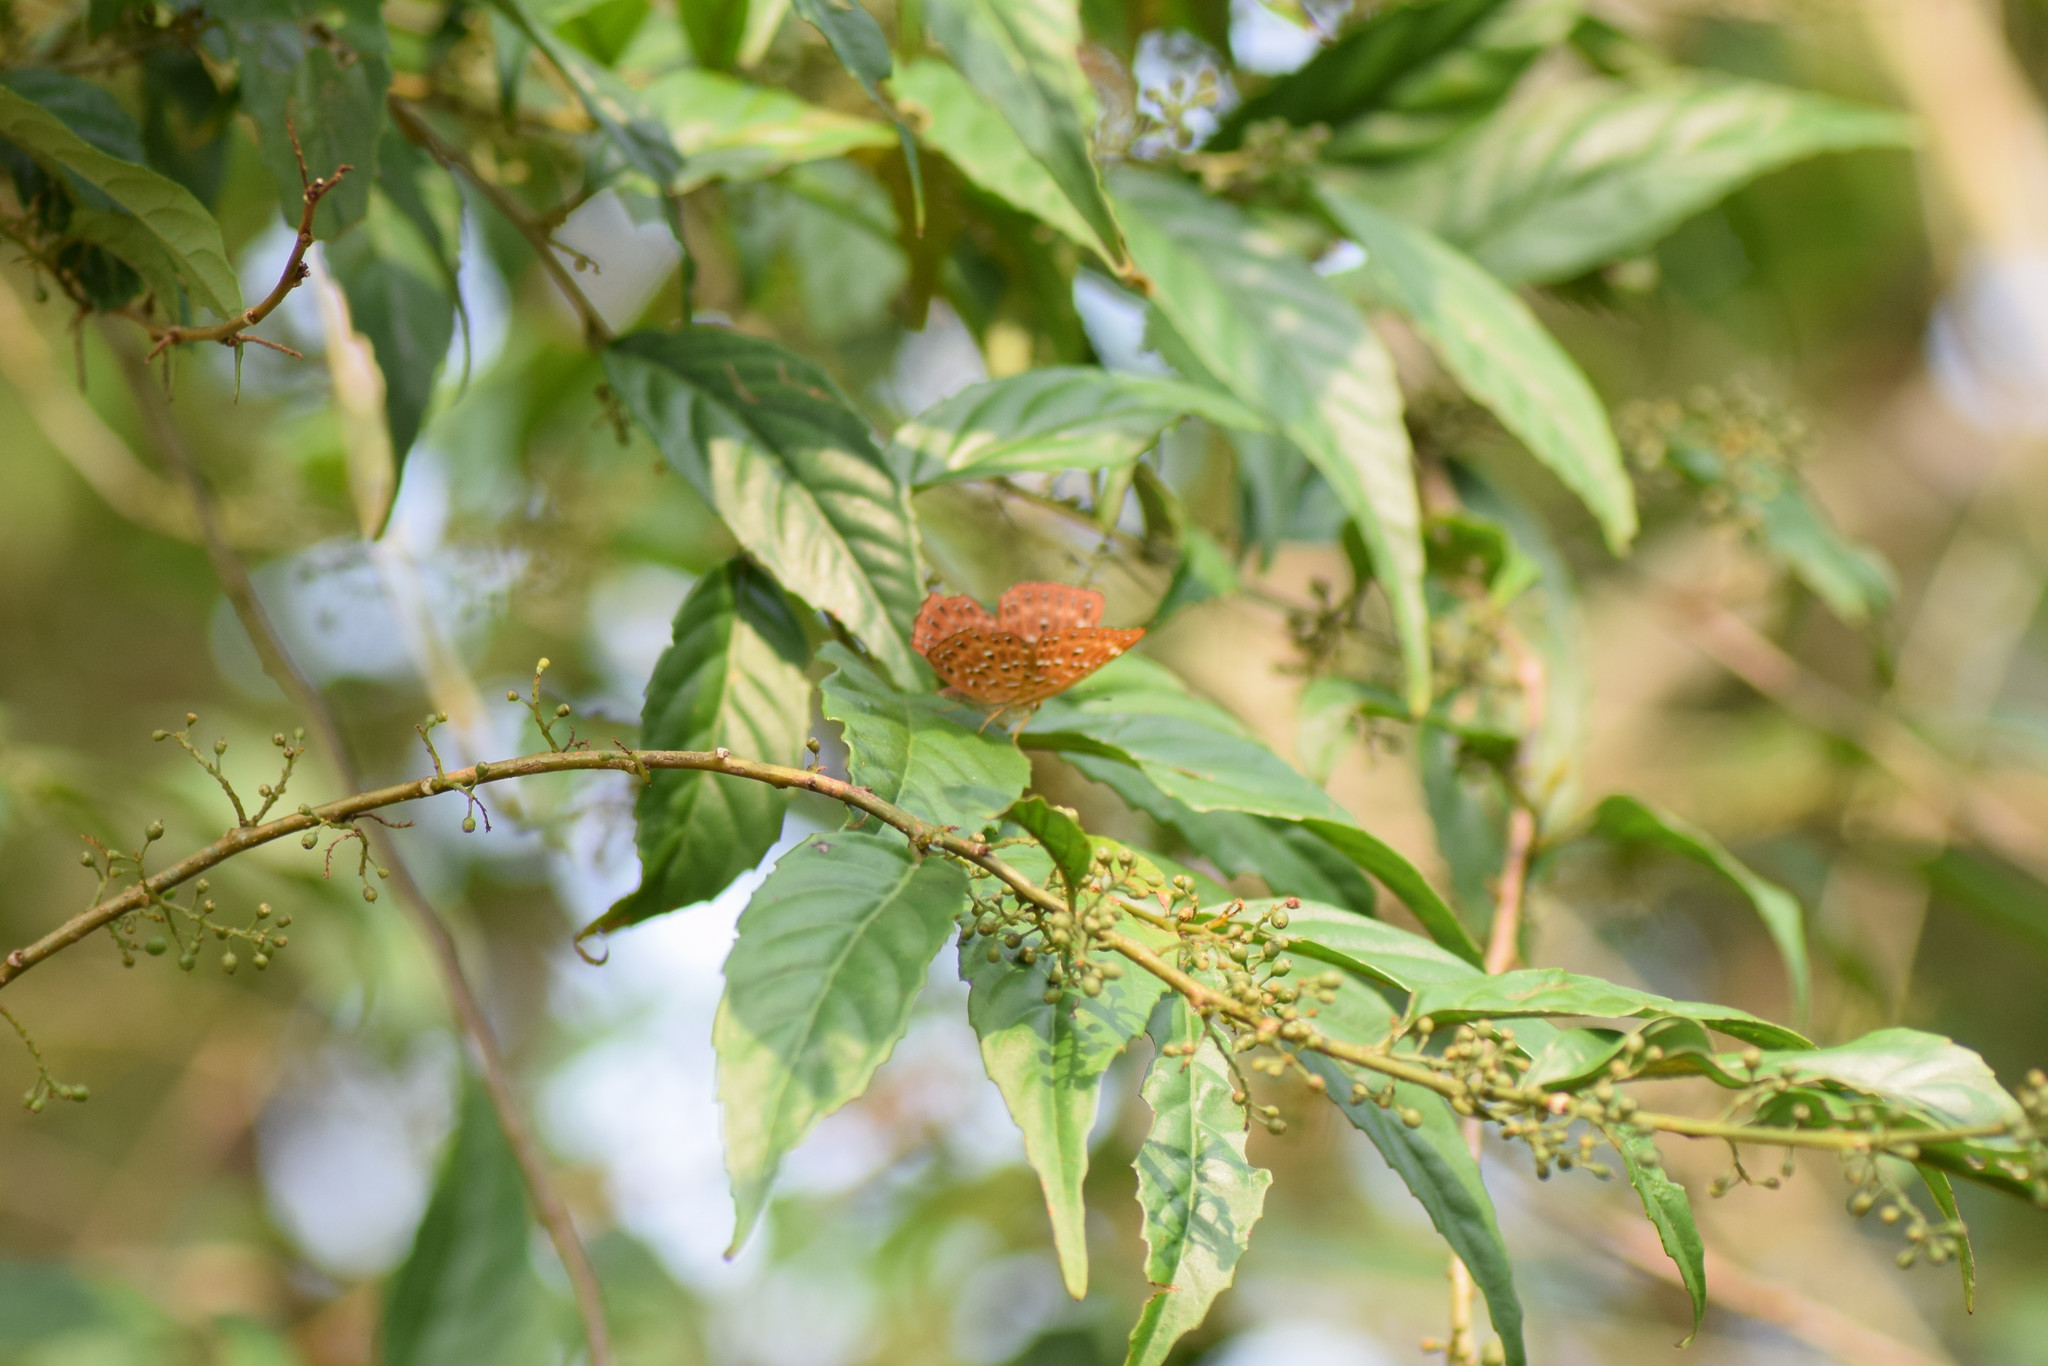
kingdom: Animalia
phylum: Arthropoda
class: Insecta
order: Lepidoptera
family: Riodinidae
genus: Zemeros
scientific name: Zemeros flegyas
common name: Punchinello
